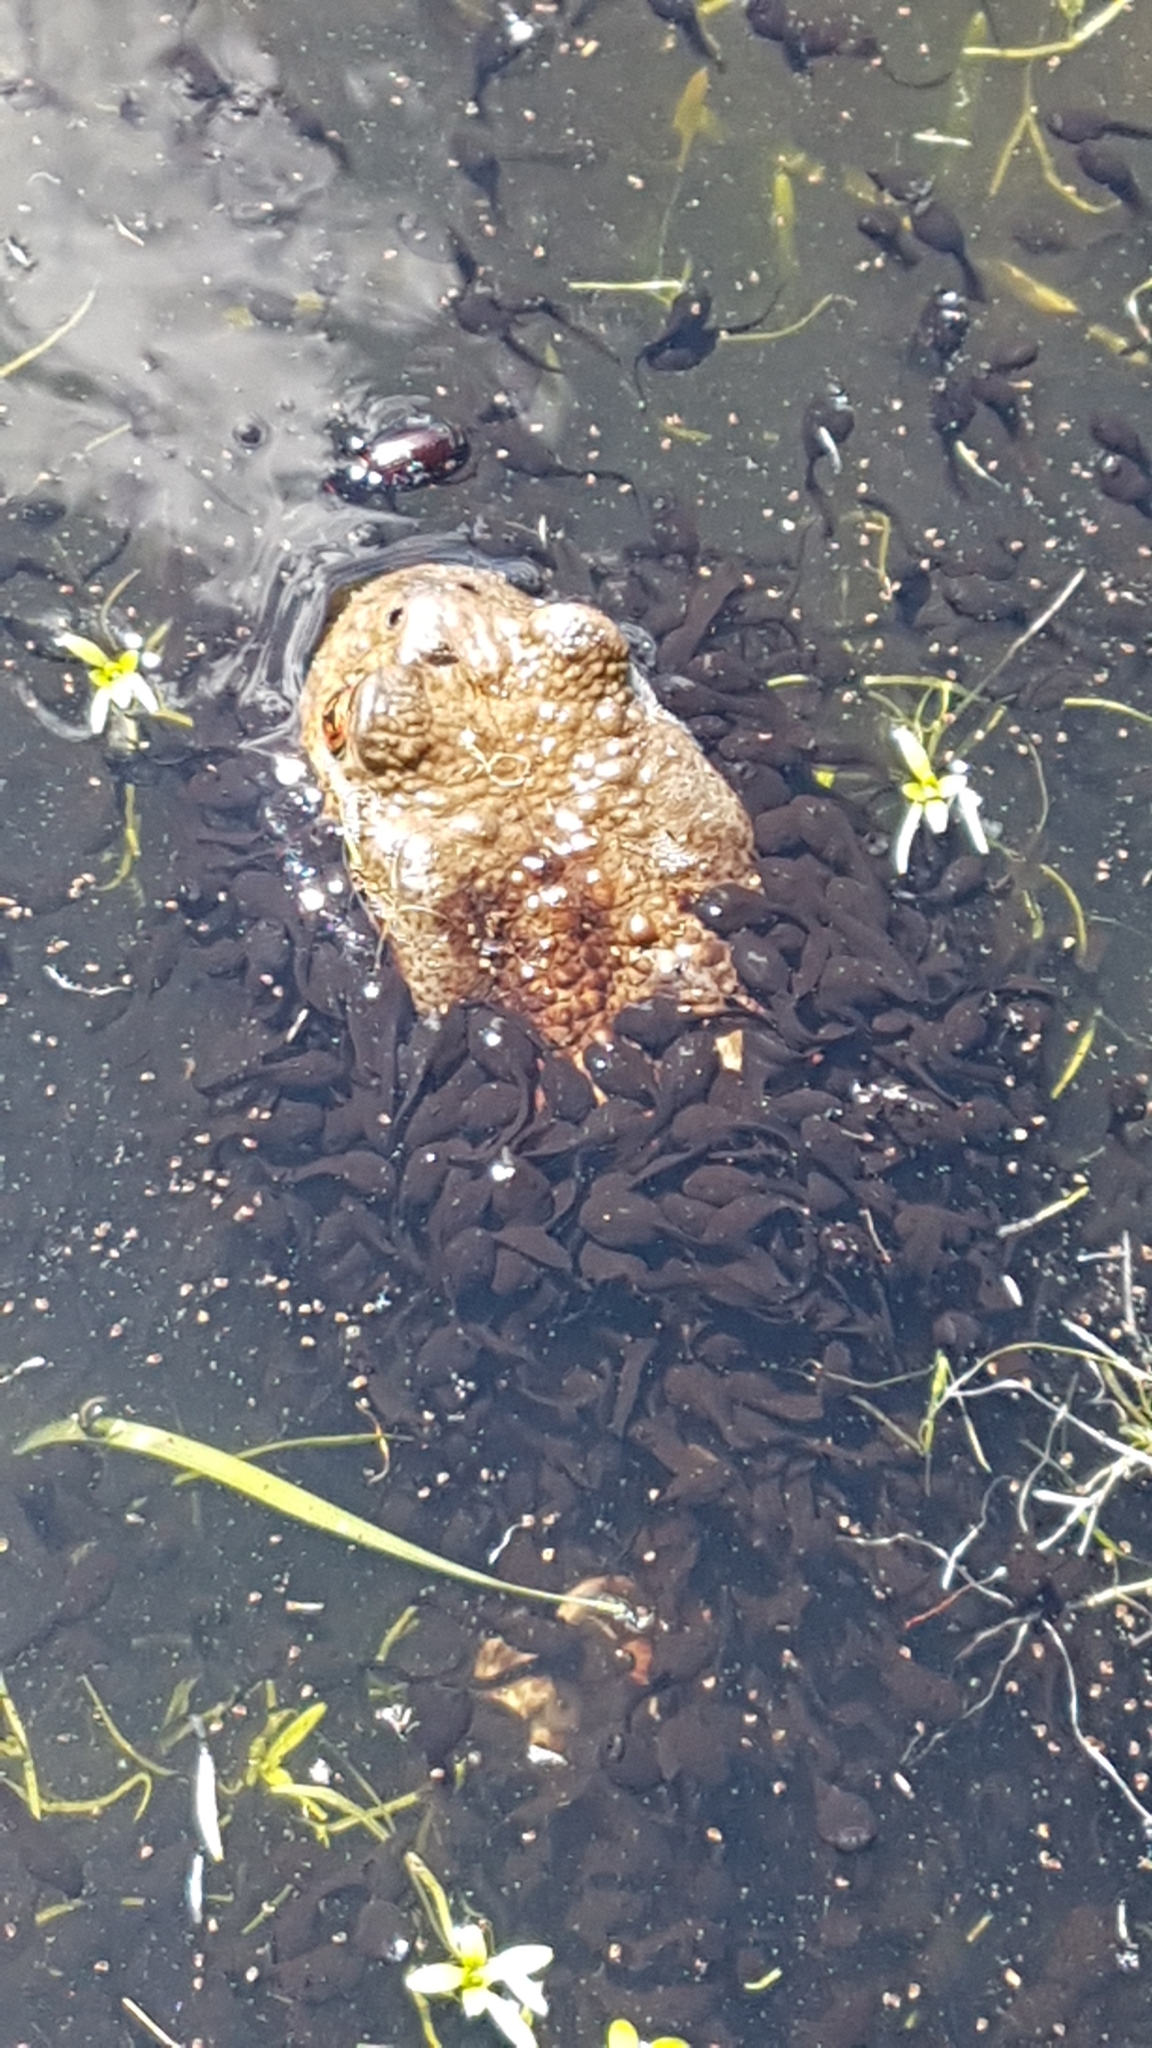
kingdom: Animalia
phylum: Chordata
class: Amphibia
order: Anura
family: Bufonidae
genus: Bufo
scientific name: Bufo bufo
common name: Common toad
